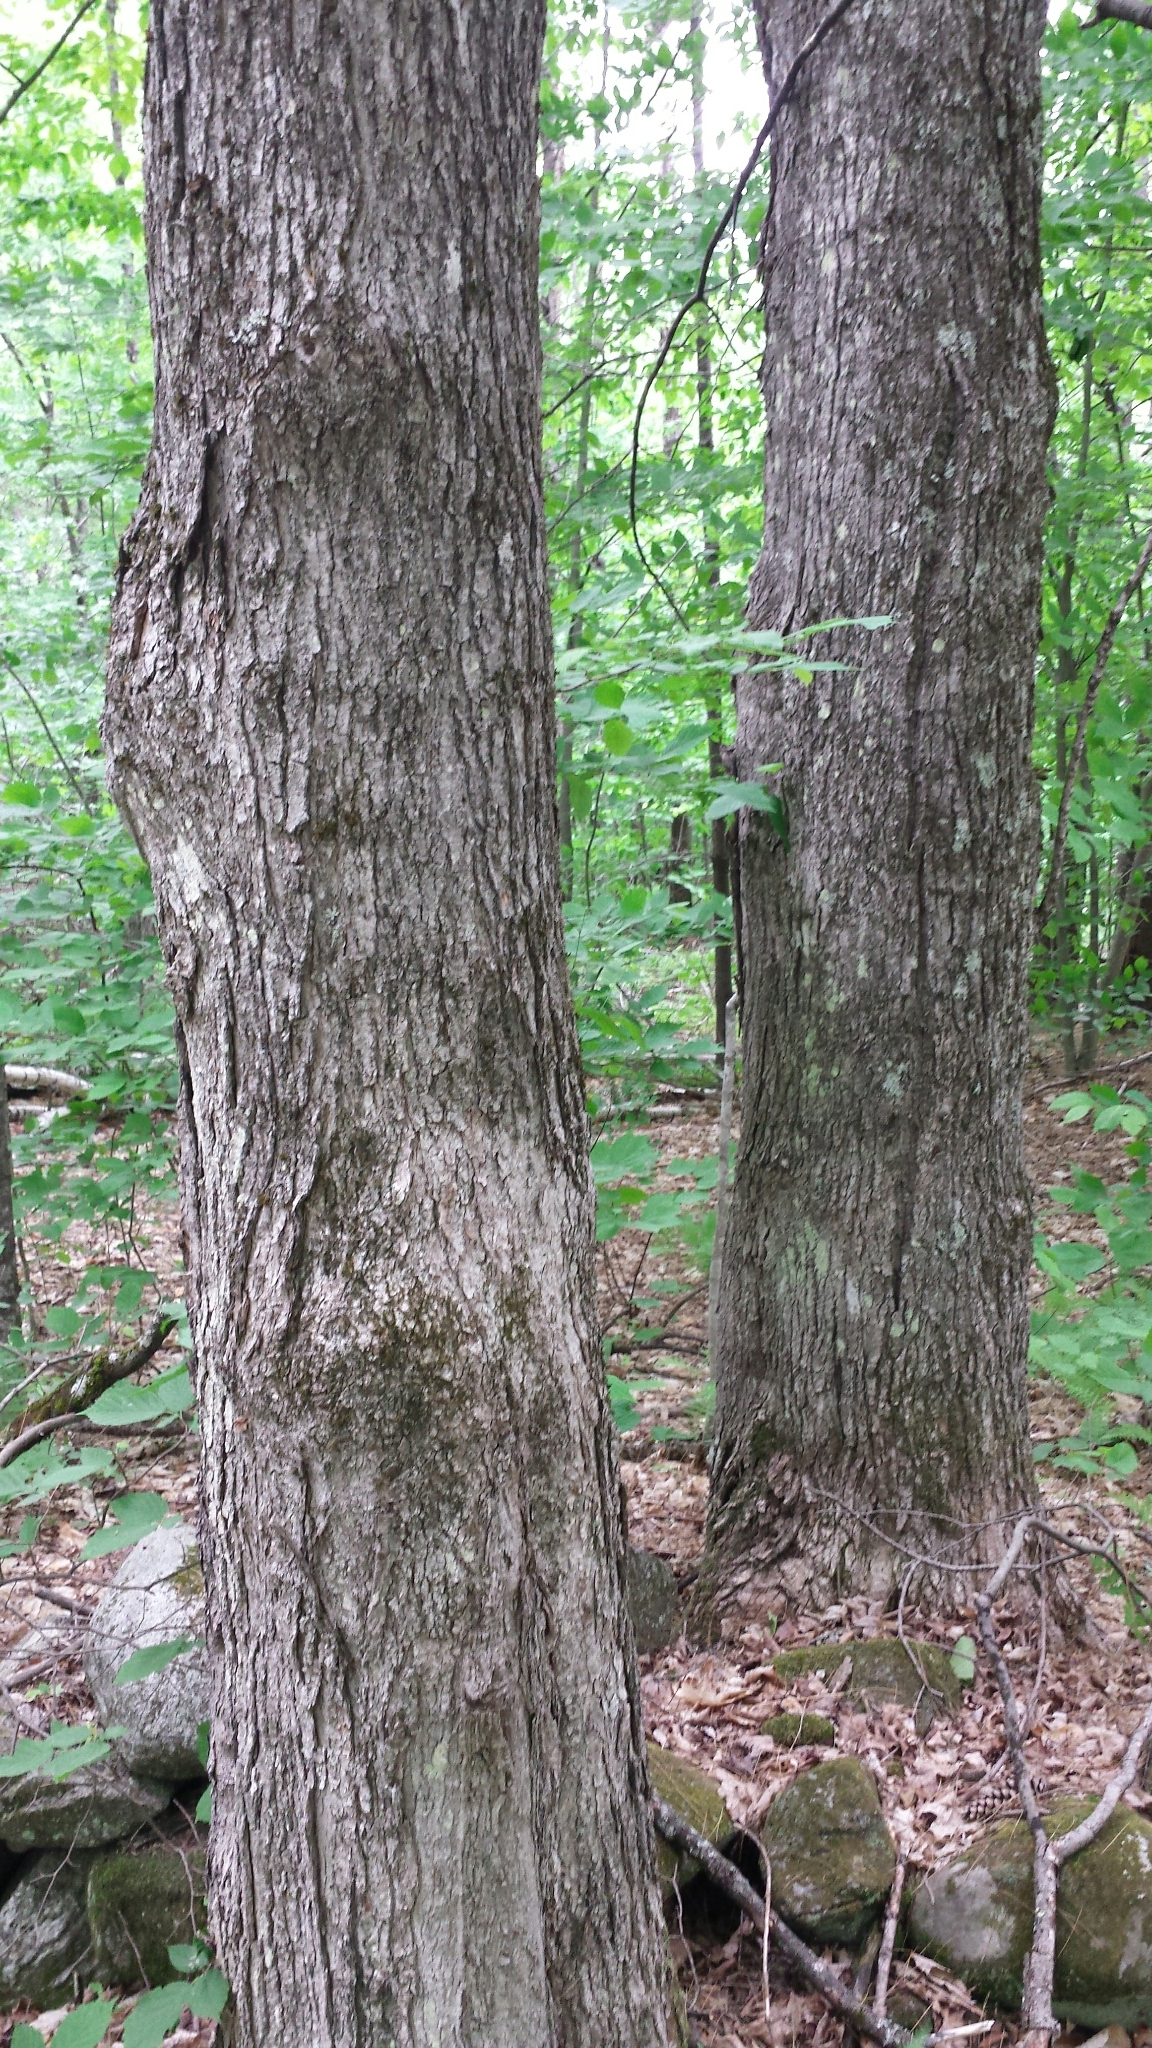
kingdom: Plantae
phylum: Tracheophyta
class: Magnoliopsida
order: Sapindales
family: Sapindaceae
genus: Acer
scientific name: Acer saccharum
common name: Sugar maple
